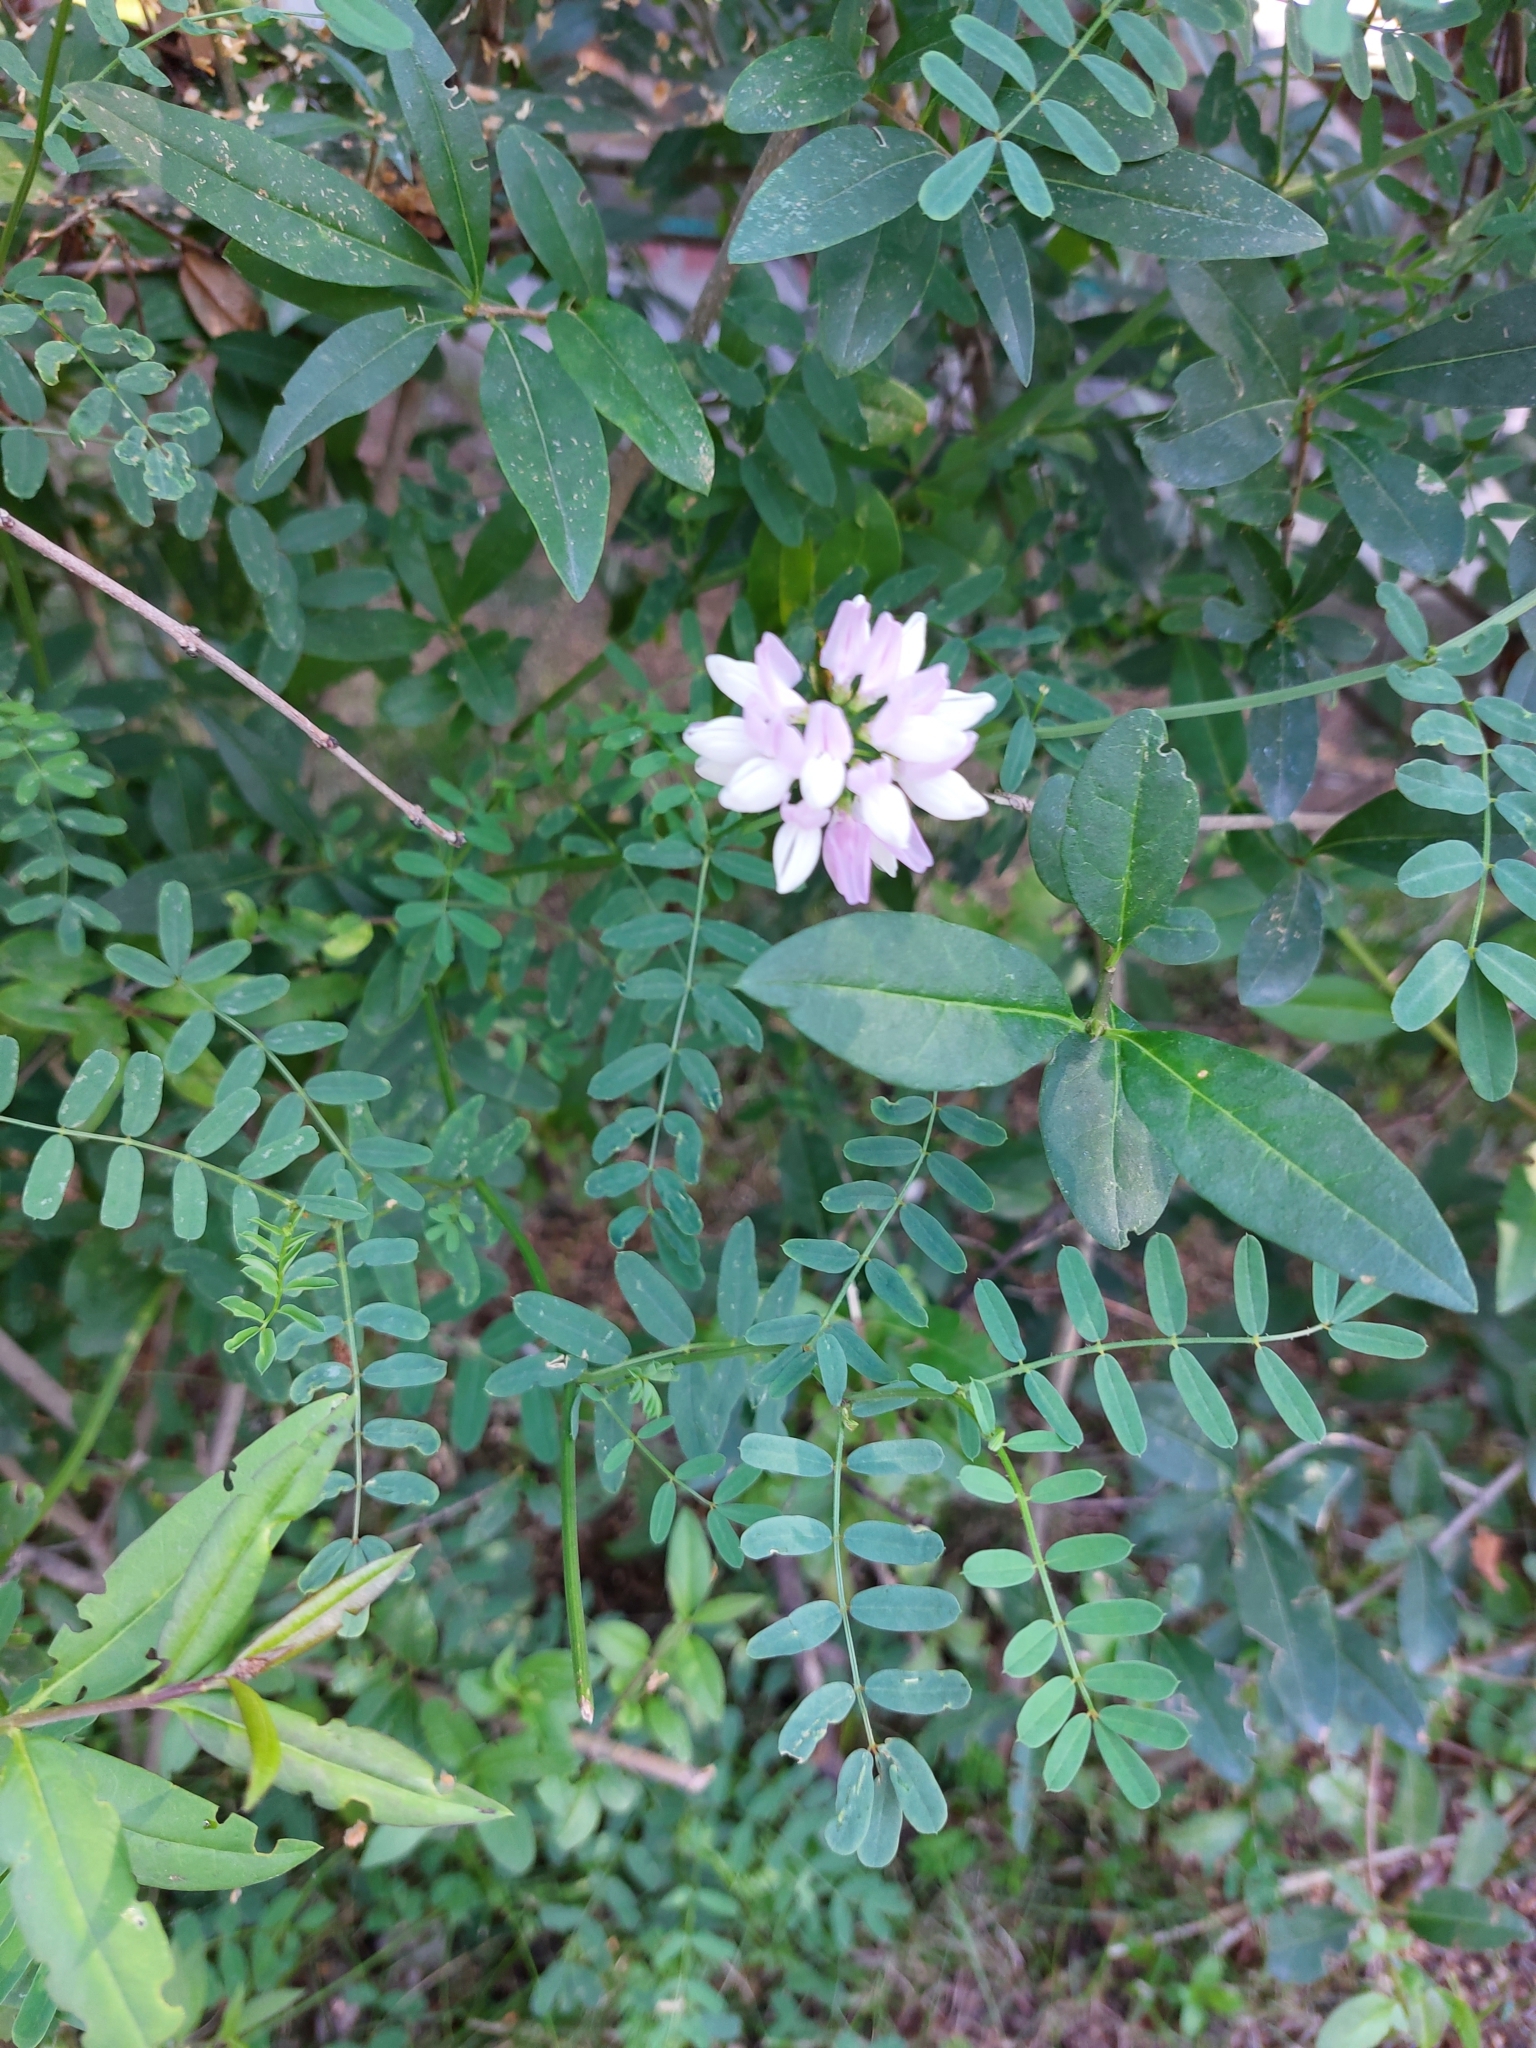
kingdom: Plantae
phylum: Tracheophyta
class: Magnoliopsida
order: Fabales
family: Fabaceae
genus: Coronilla
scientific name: Coronilla varia
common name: Crownvetch
